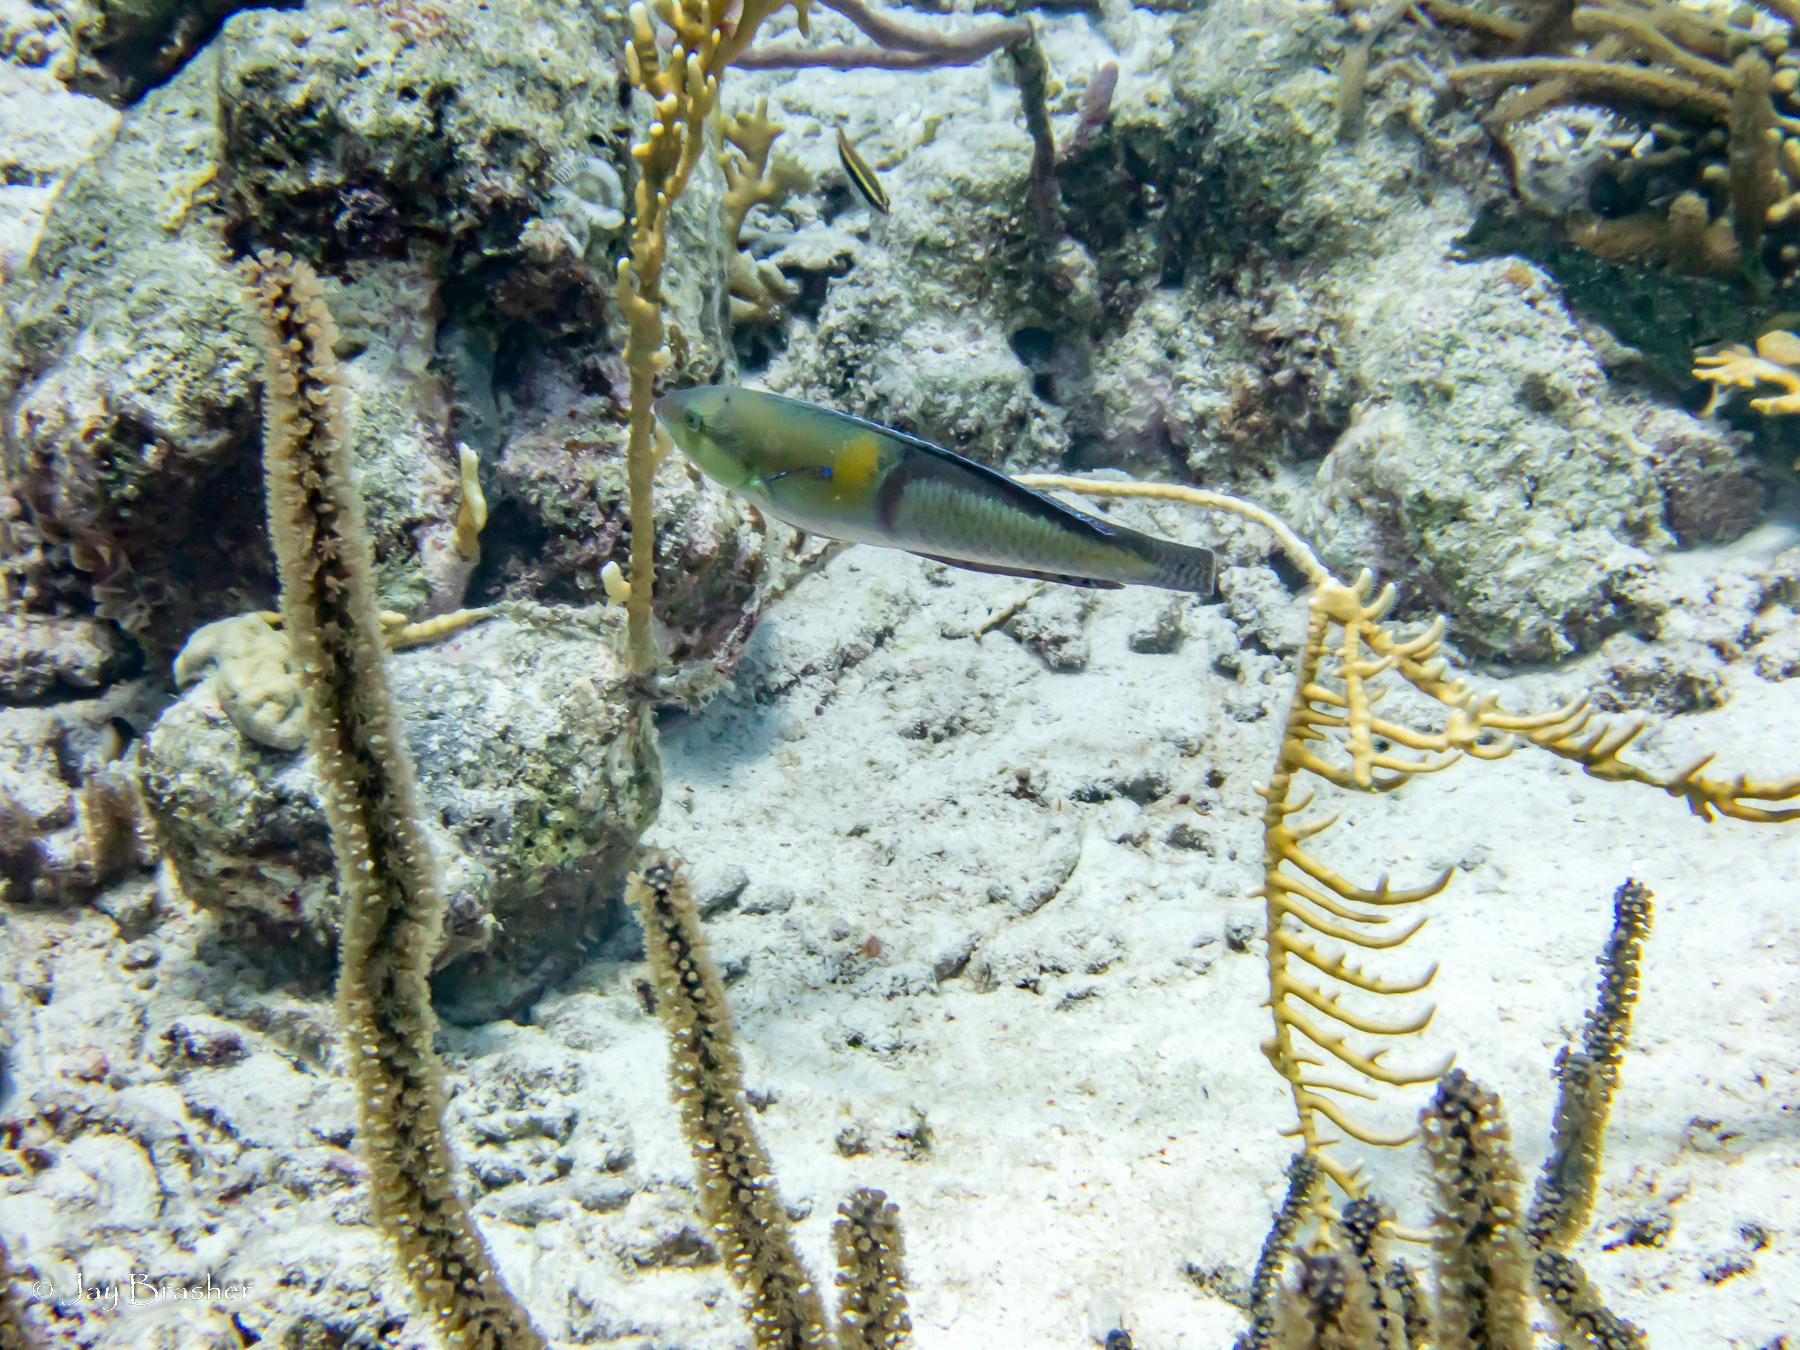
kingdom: Animalia
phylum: Chordata
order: Perciformes
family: Labridae
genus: Halichoeres
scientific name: Halichoeres garnoti
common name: Yellowhead wrasse
